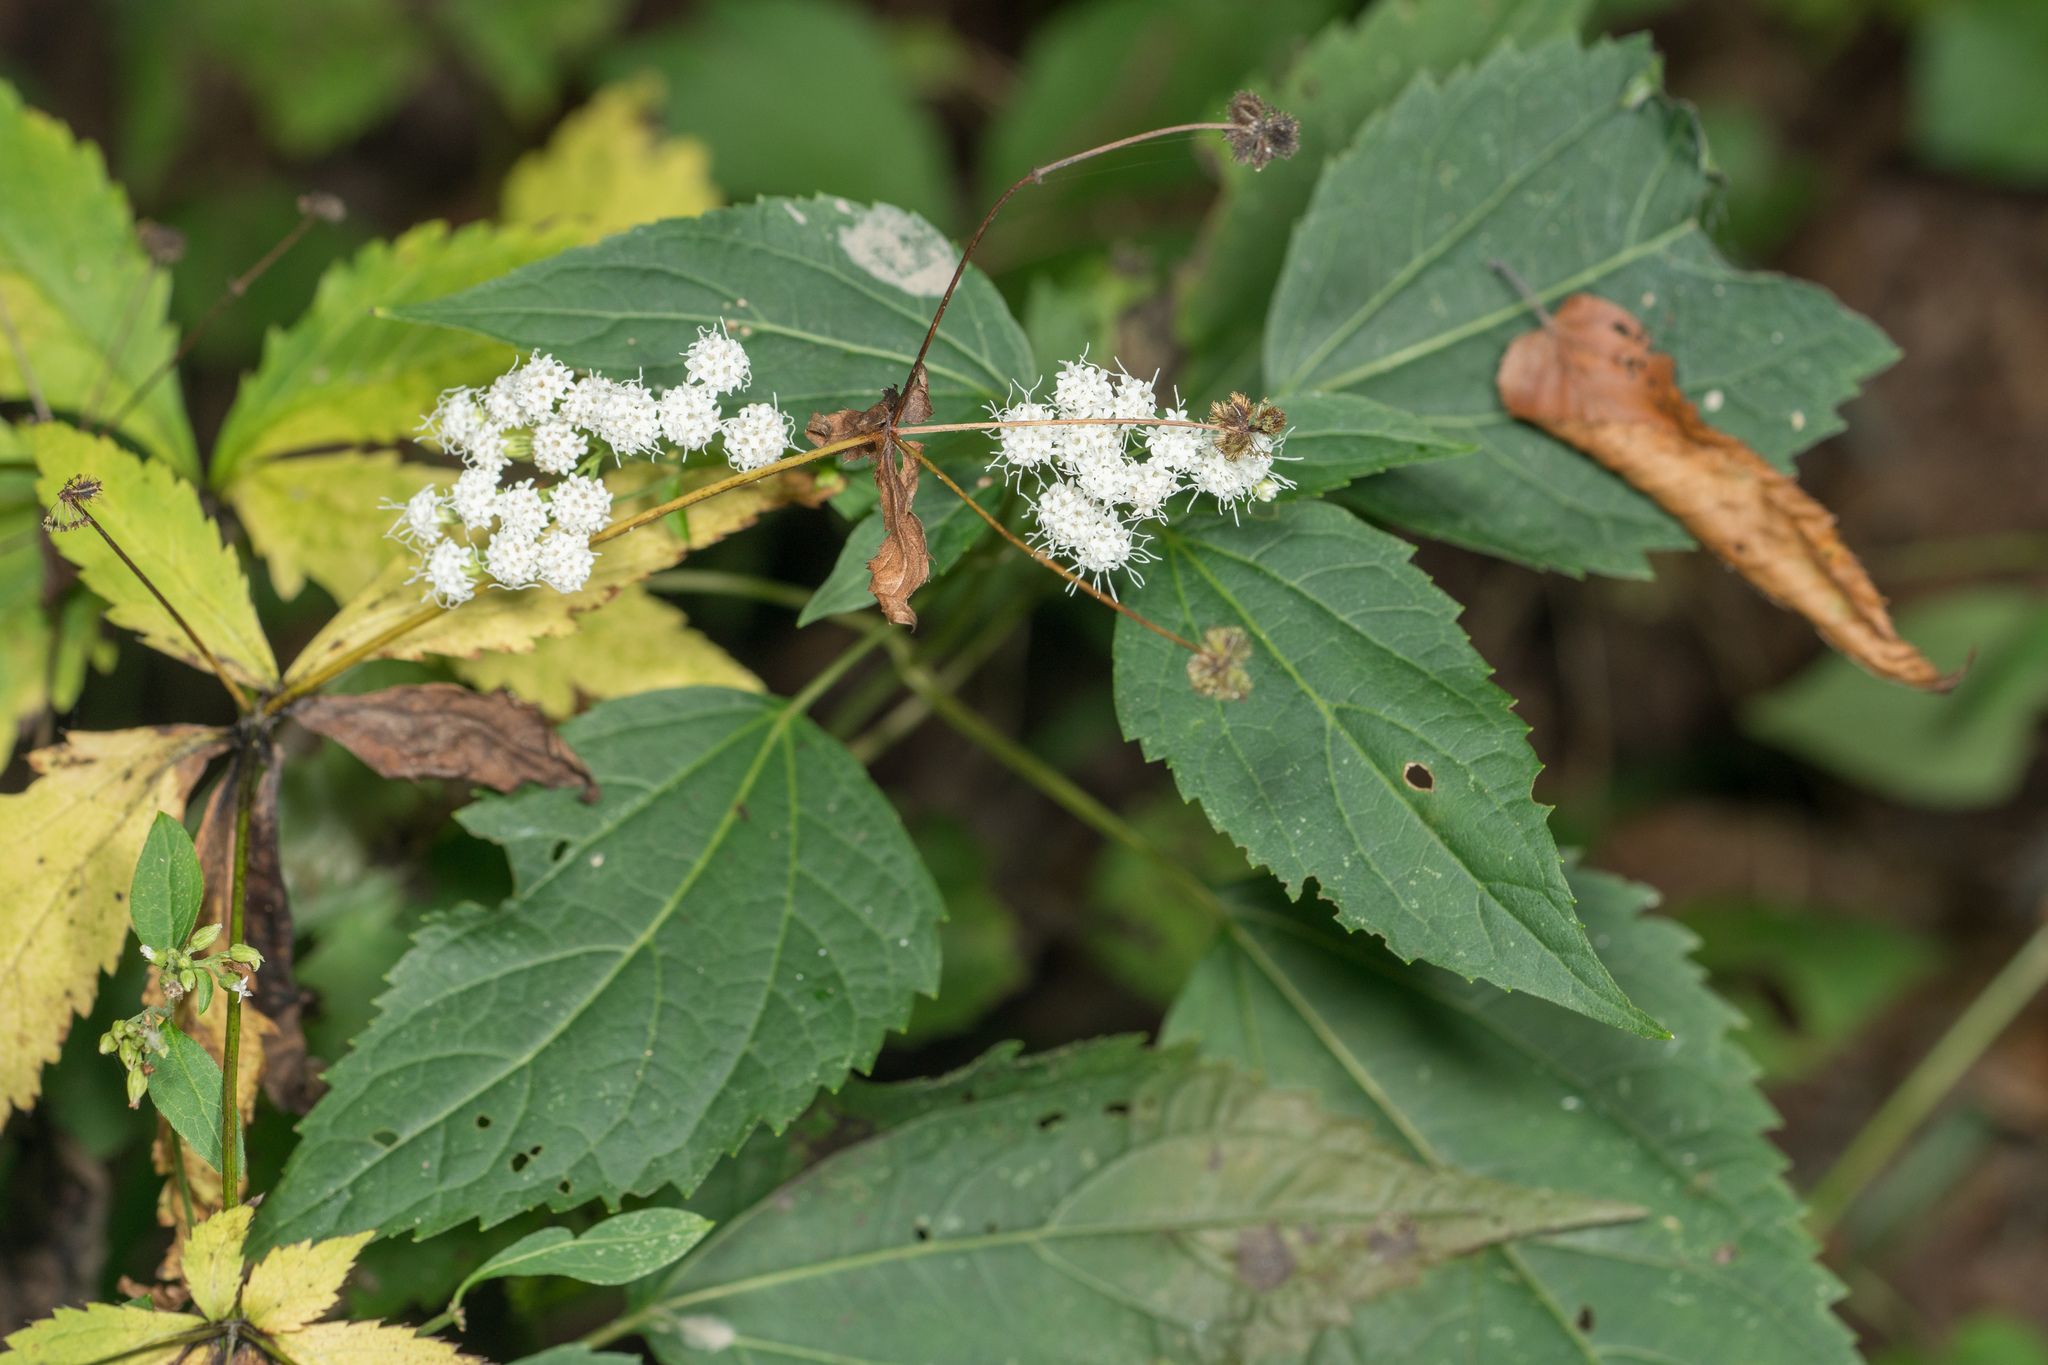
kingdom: Plantae
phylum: Tracheophyta
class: Magnoliopsida
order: Asterales
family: Asteraceae
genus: Ageratina
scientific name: Ageratina altissima
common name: White snakeroot
